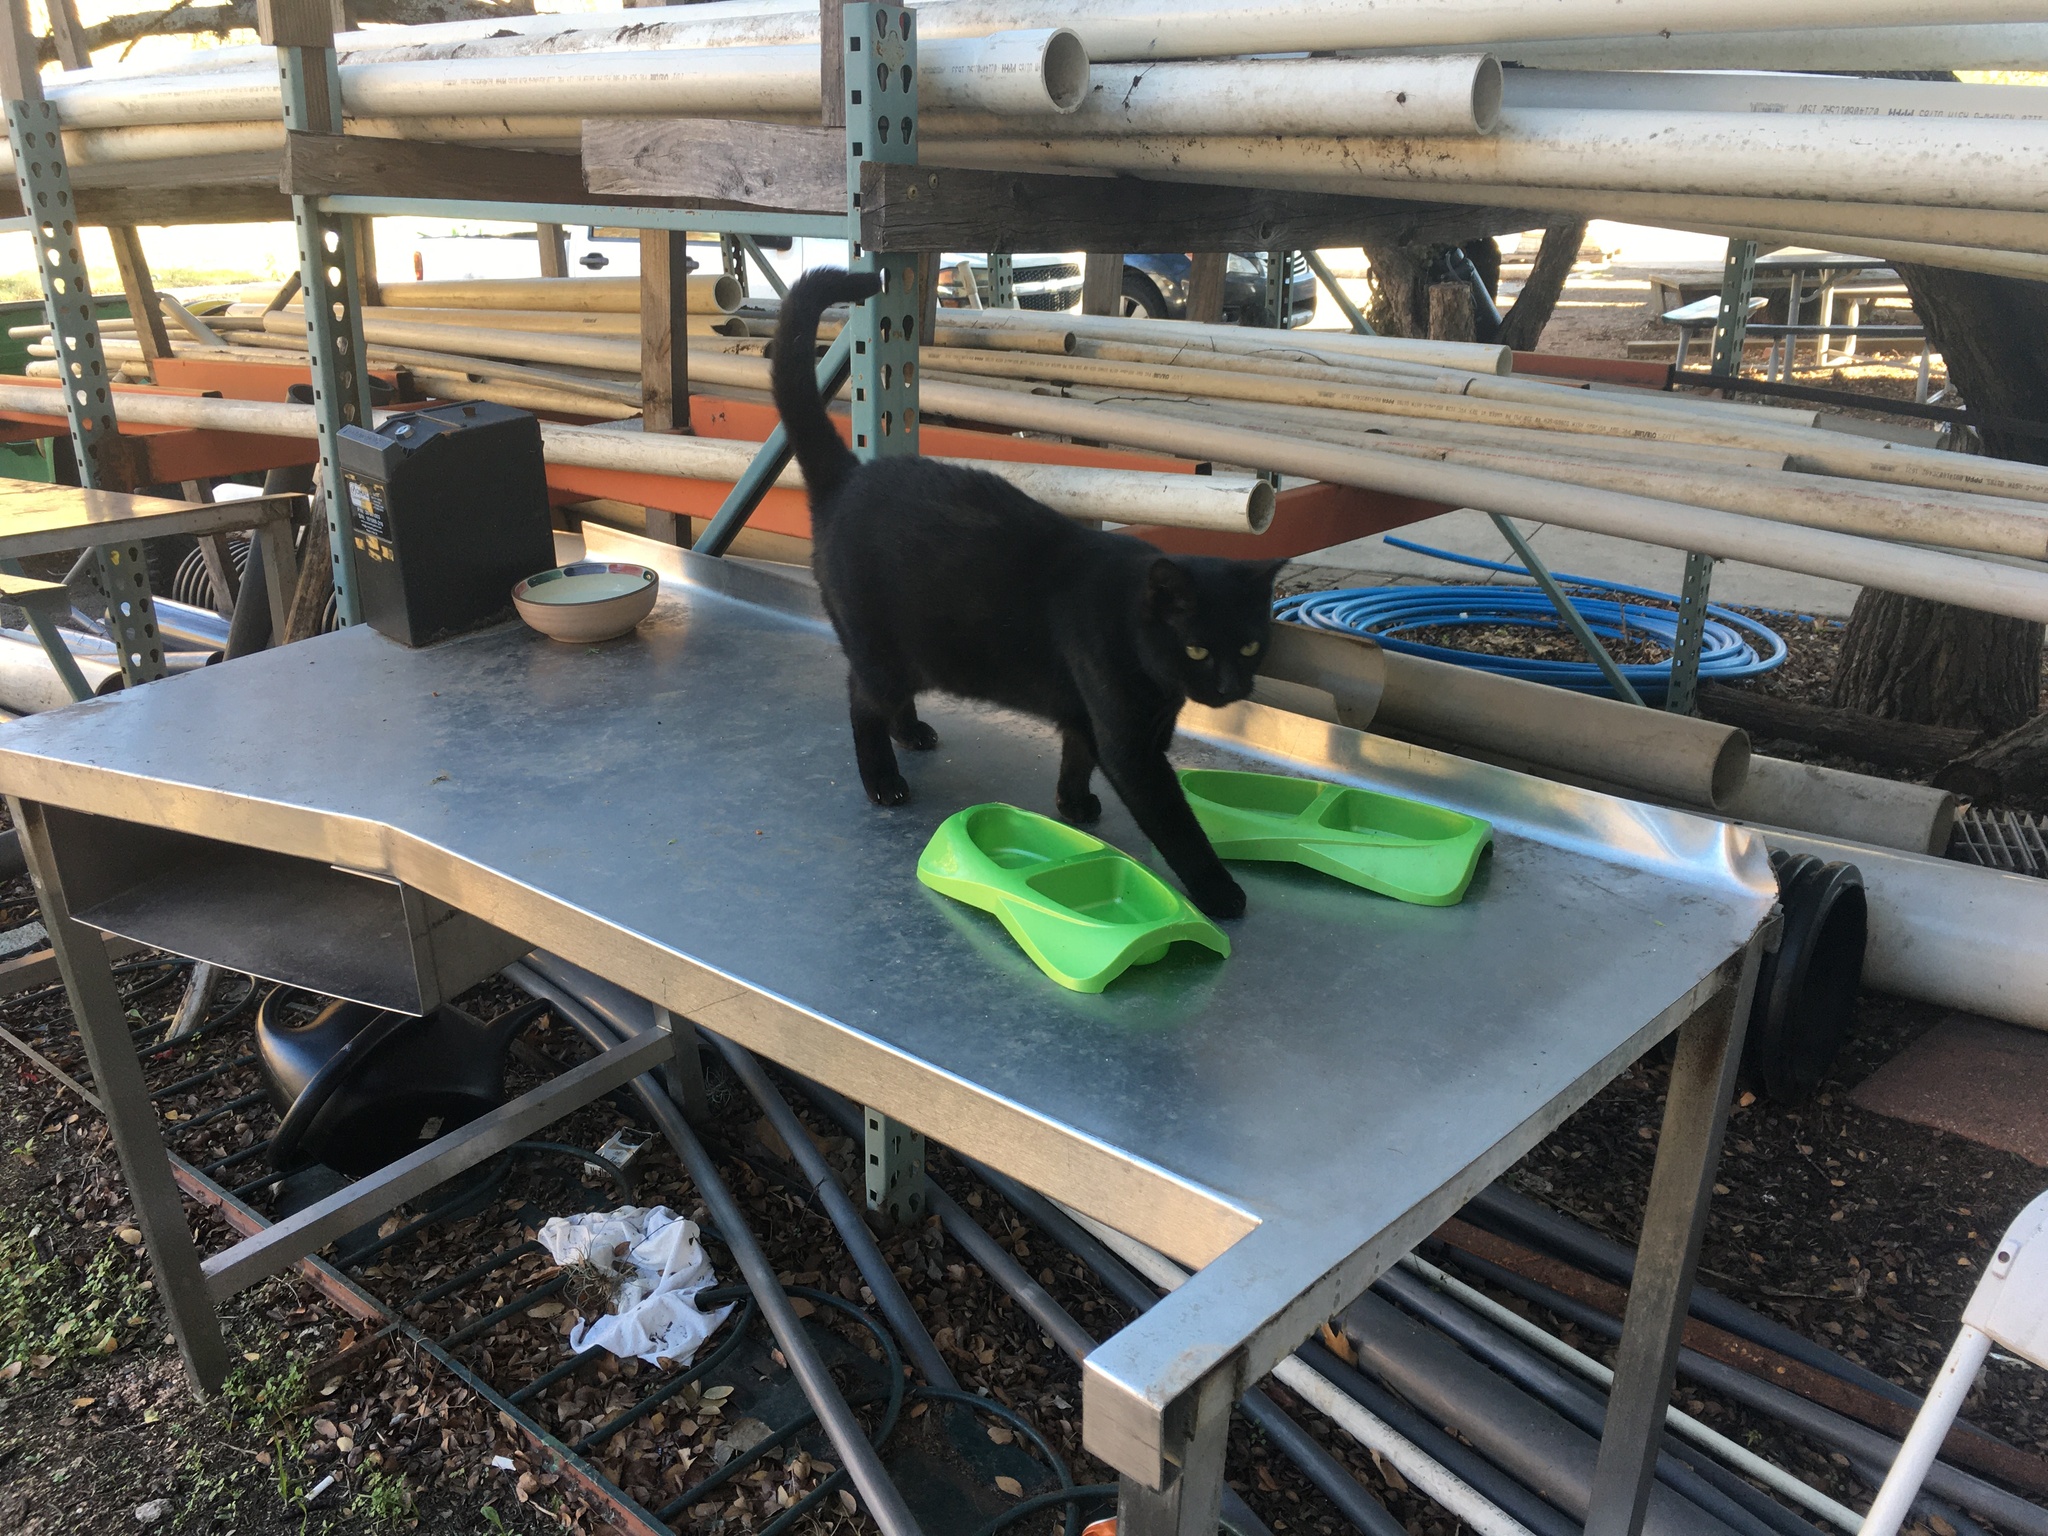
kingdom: Animalia
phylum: Chordata
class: Mammalia
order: Carnivora
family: Felidae
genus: Felis
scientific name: Felis catus
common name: Domestic cat
